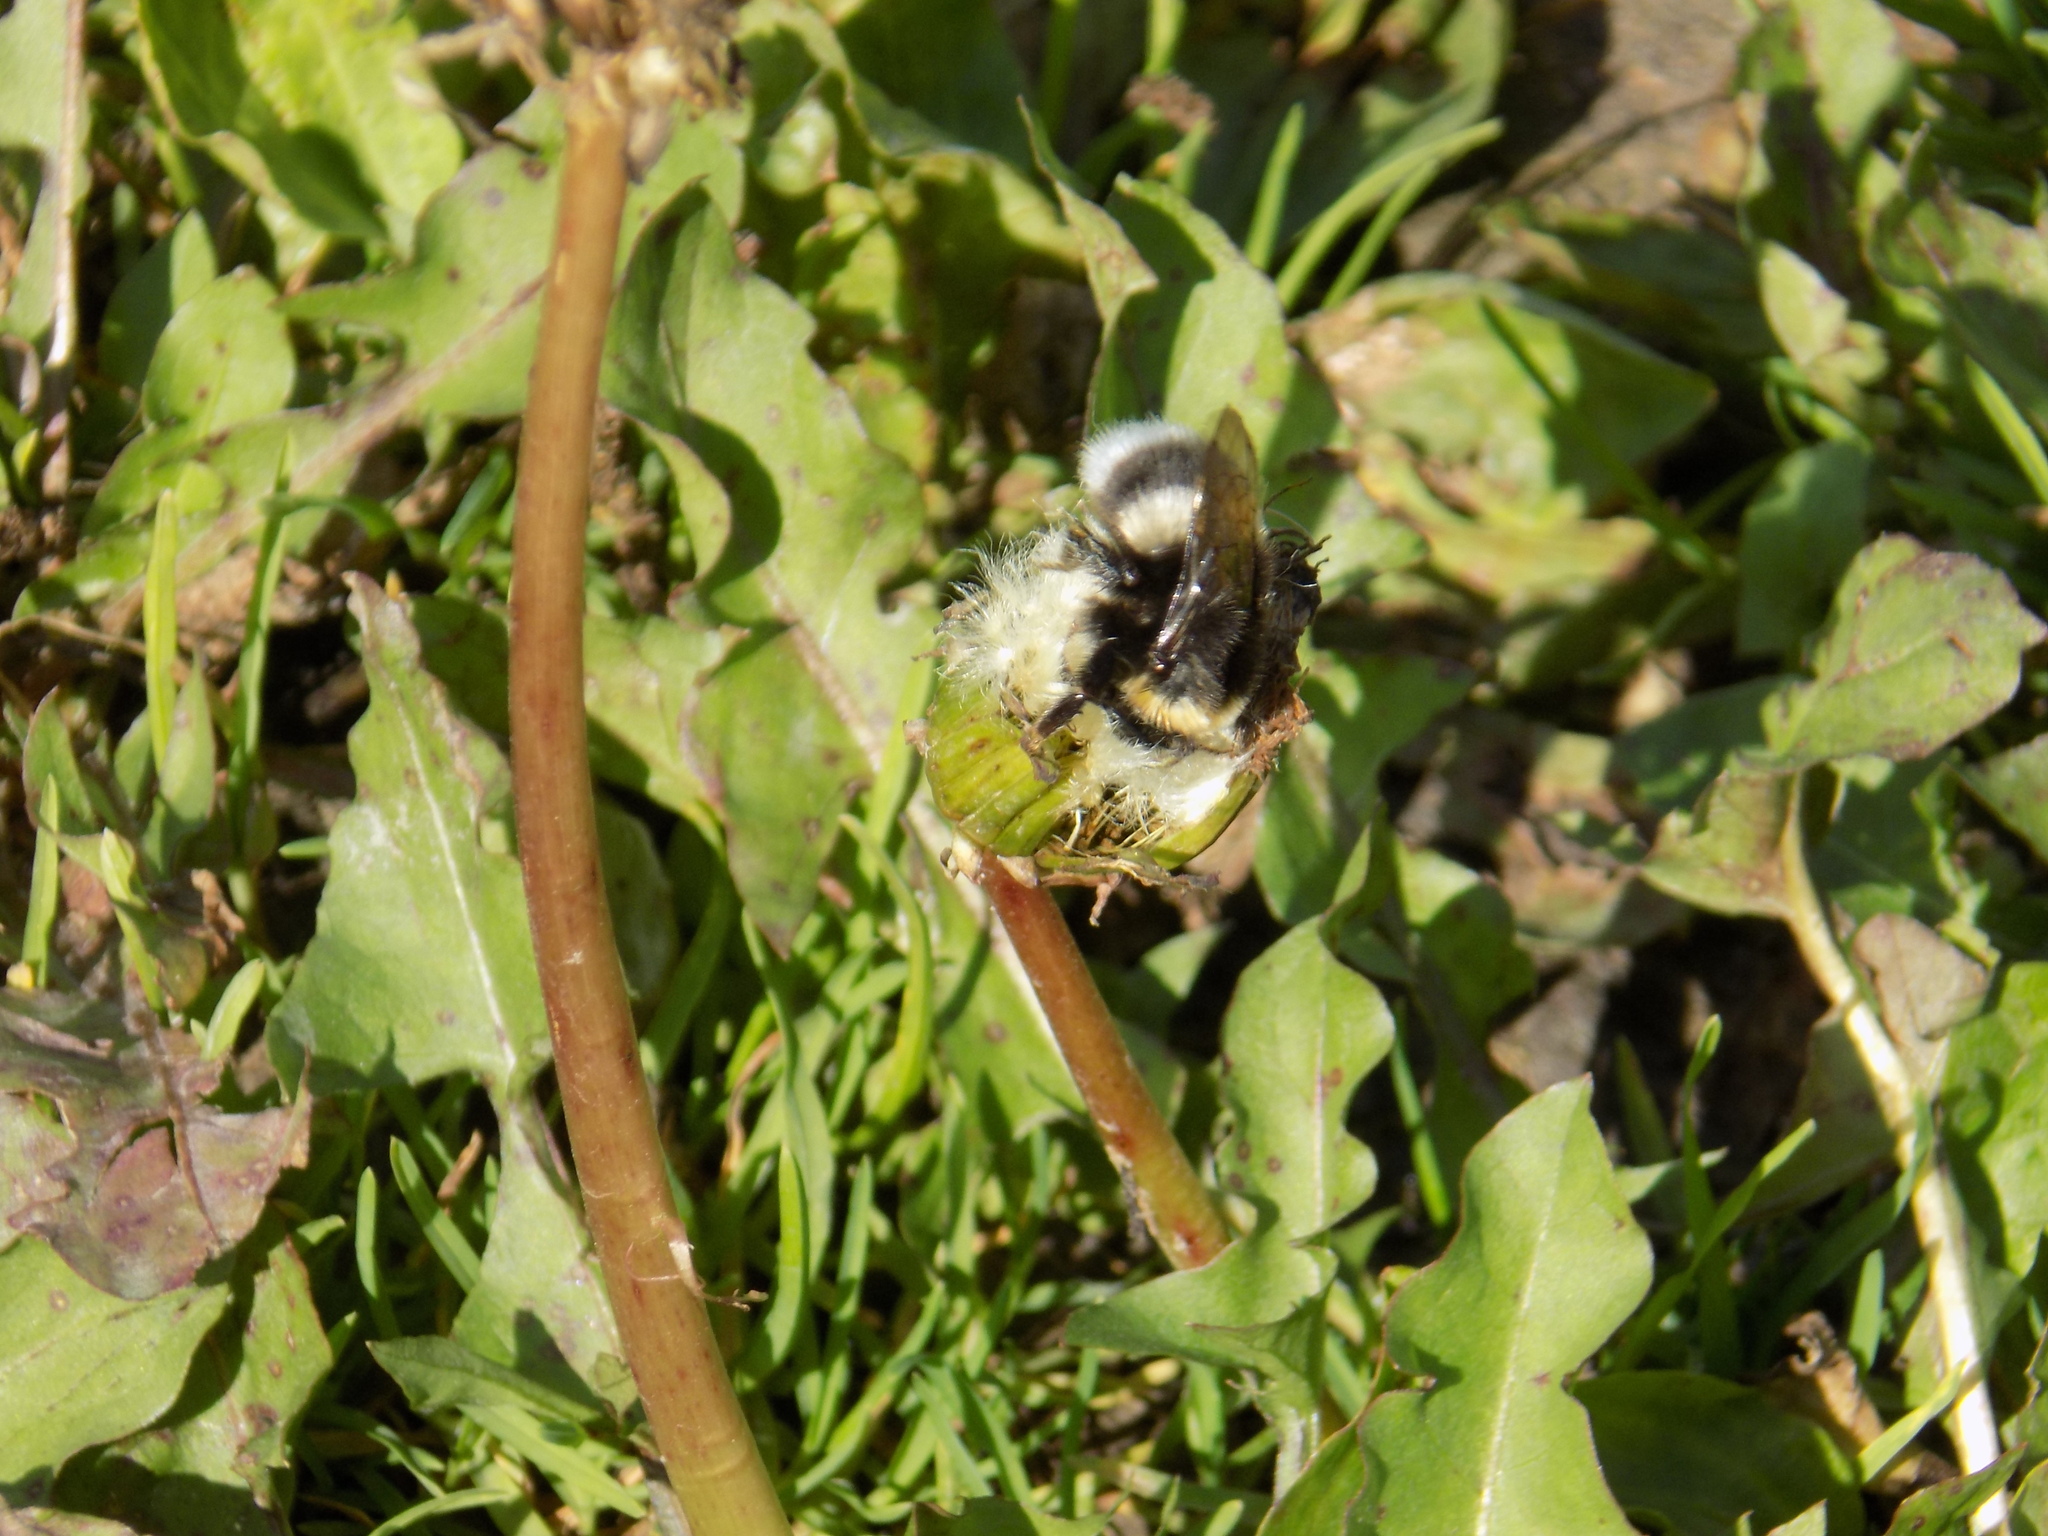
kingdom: Animalia
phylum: Arthropoda
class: Insecta
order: Hymenoptera
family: Apidae
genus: Bombus
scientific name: Bombus
